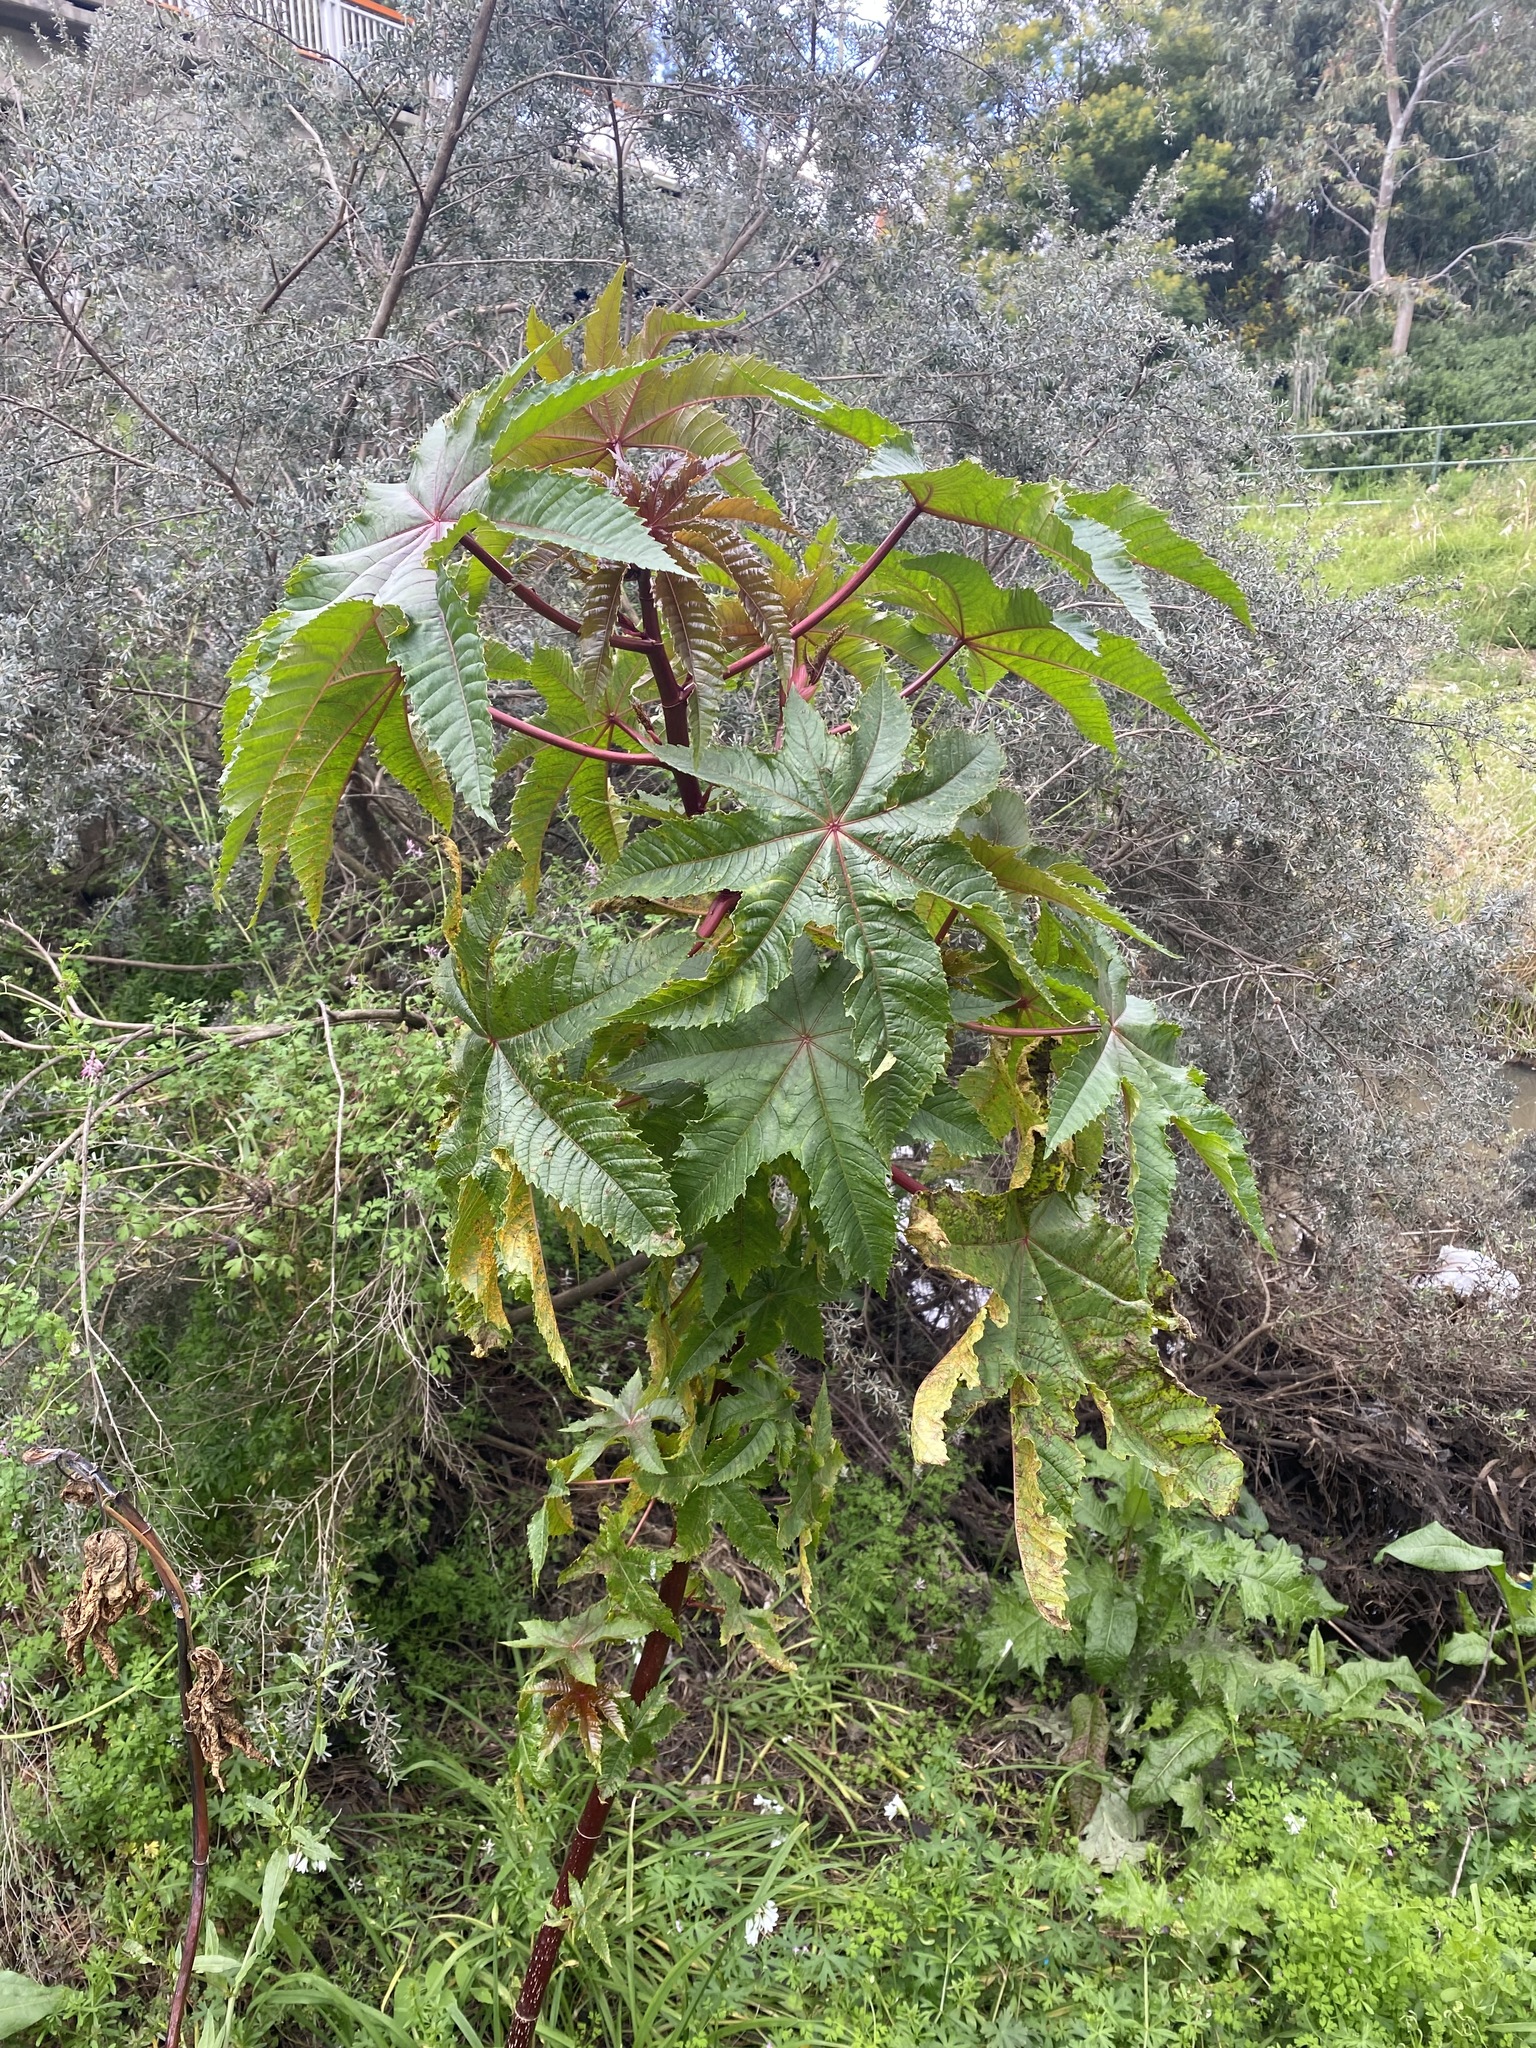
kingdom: Plantae
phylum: Tracheophyta
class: Magnoliopsida
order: Malpighiales
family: Euphorbiaceae
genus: Ricinus
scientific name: Ricinus communis
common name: Castor-oil-plant
